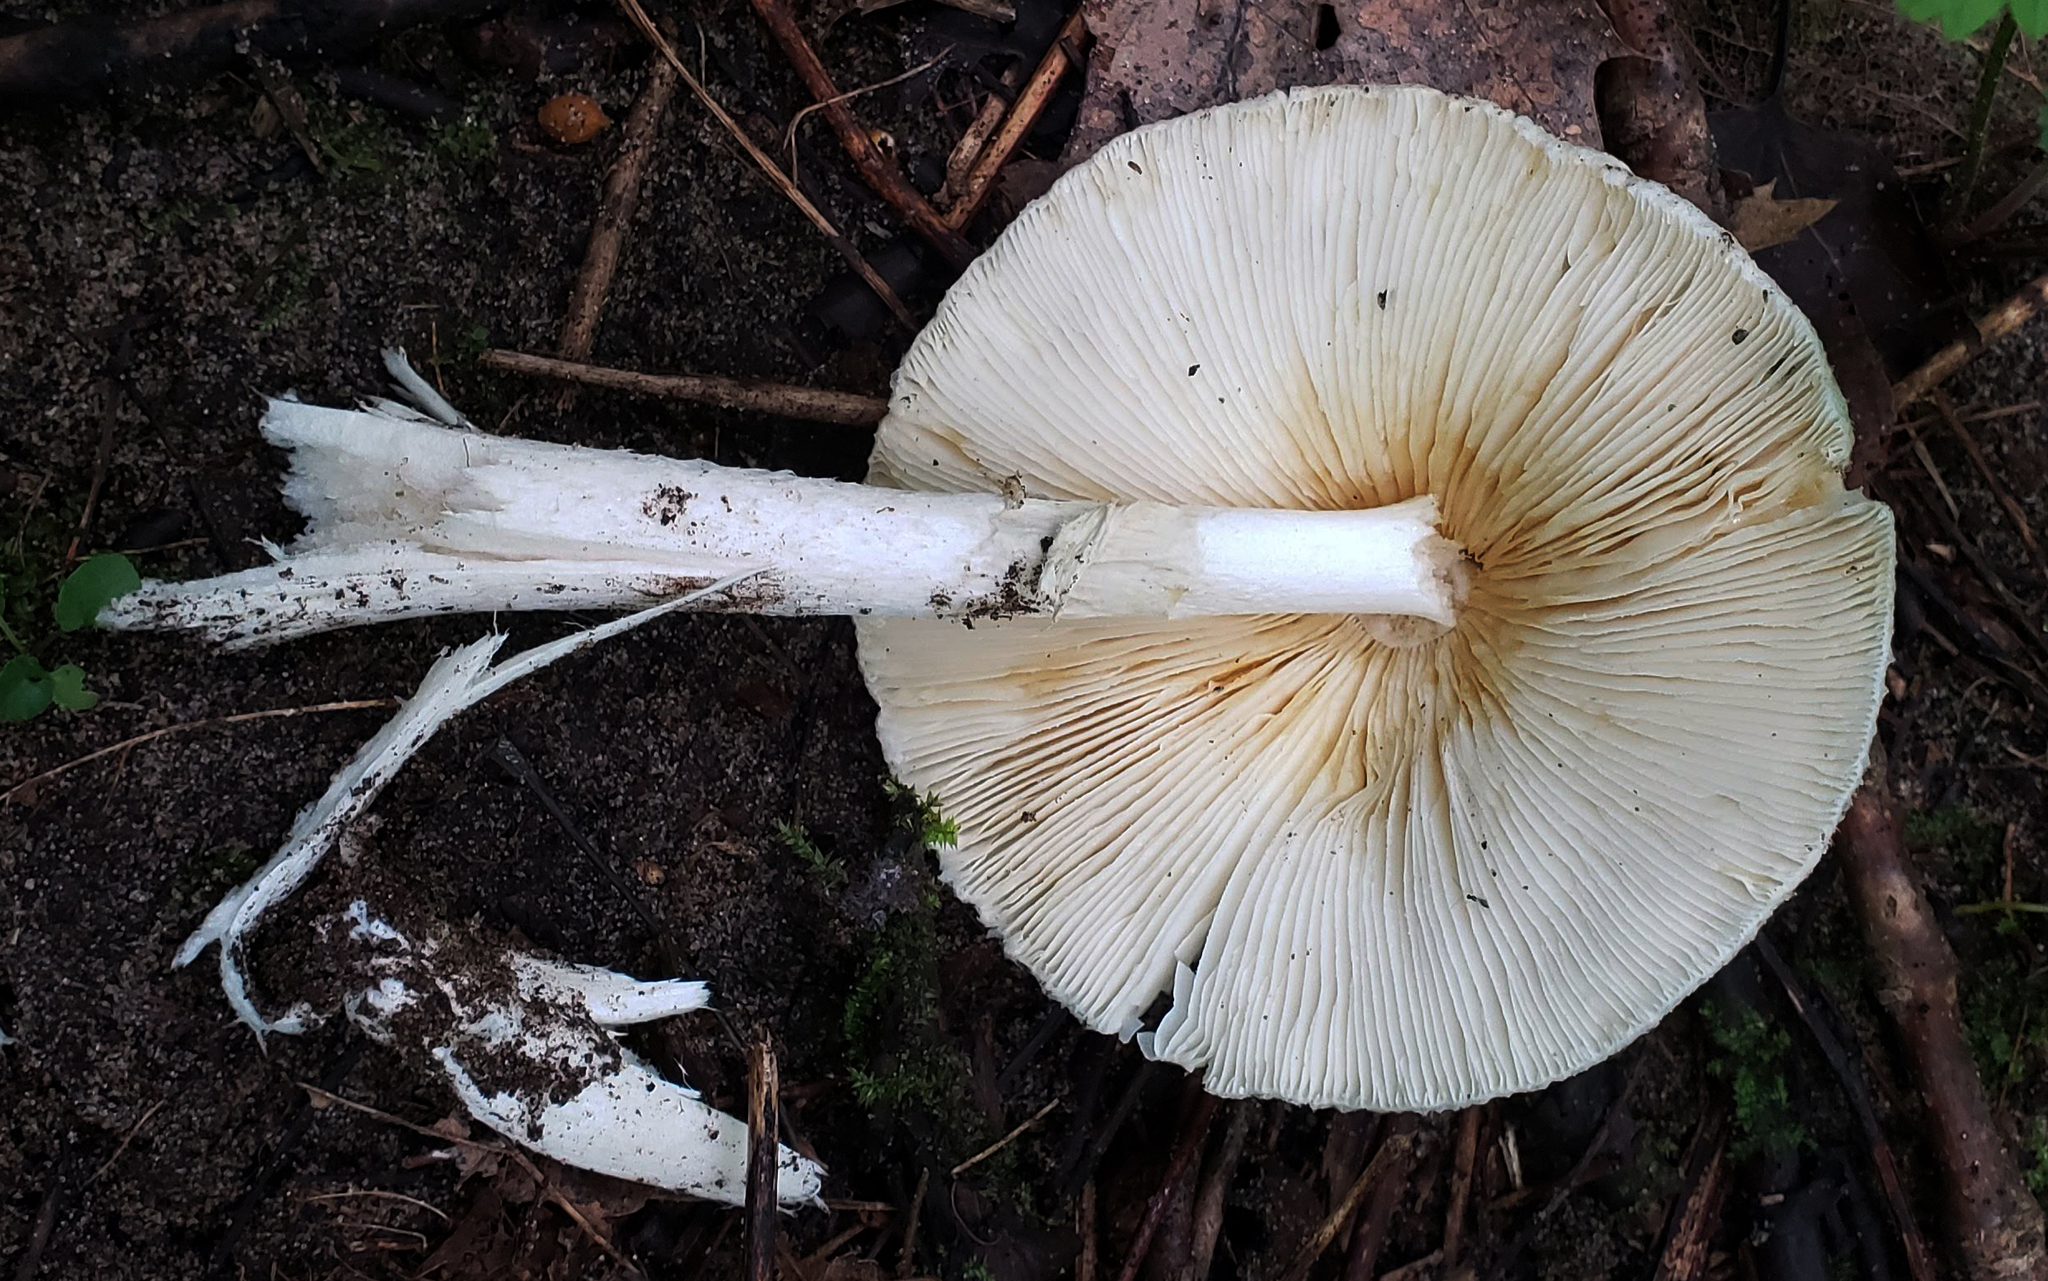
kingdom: Fungi
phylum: Basidiomycota
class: Agaricomycetes
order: Agaricales
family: Amanitaceae
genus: Amanita
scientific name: Amanita bisporigera
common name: Eastern north american destroying angel
